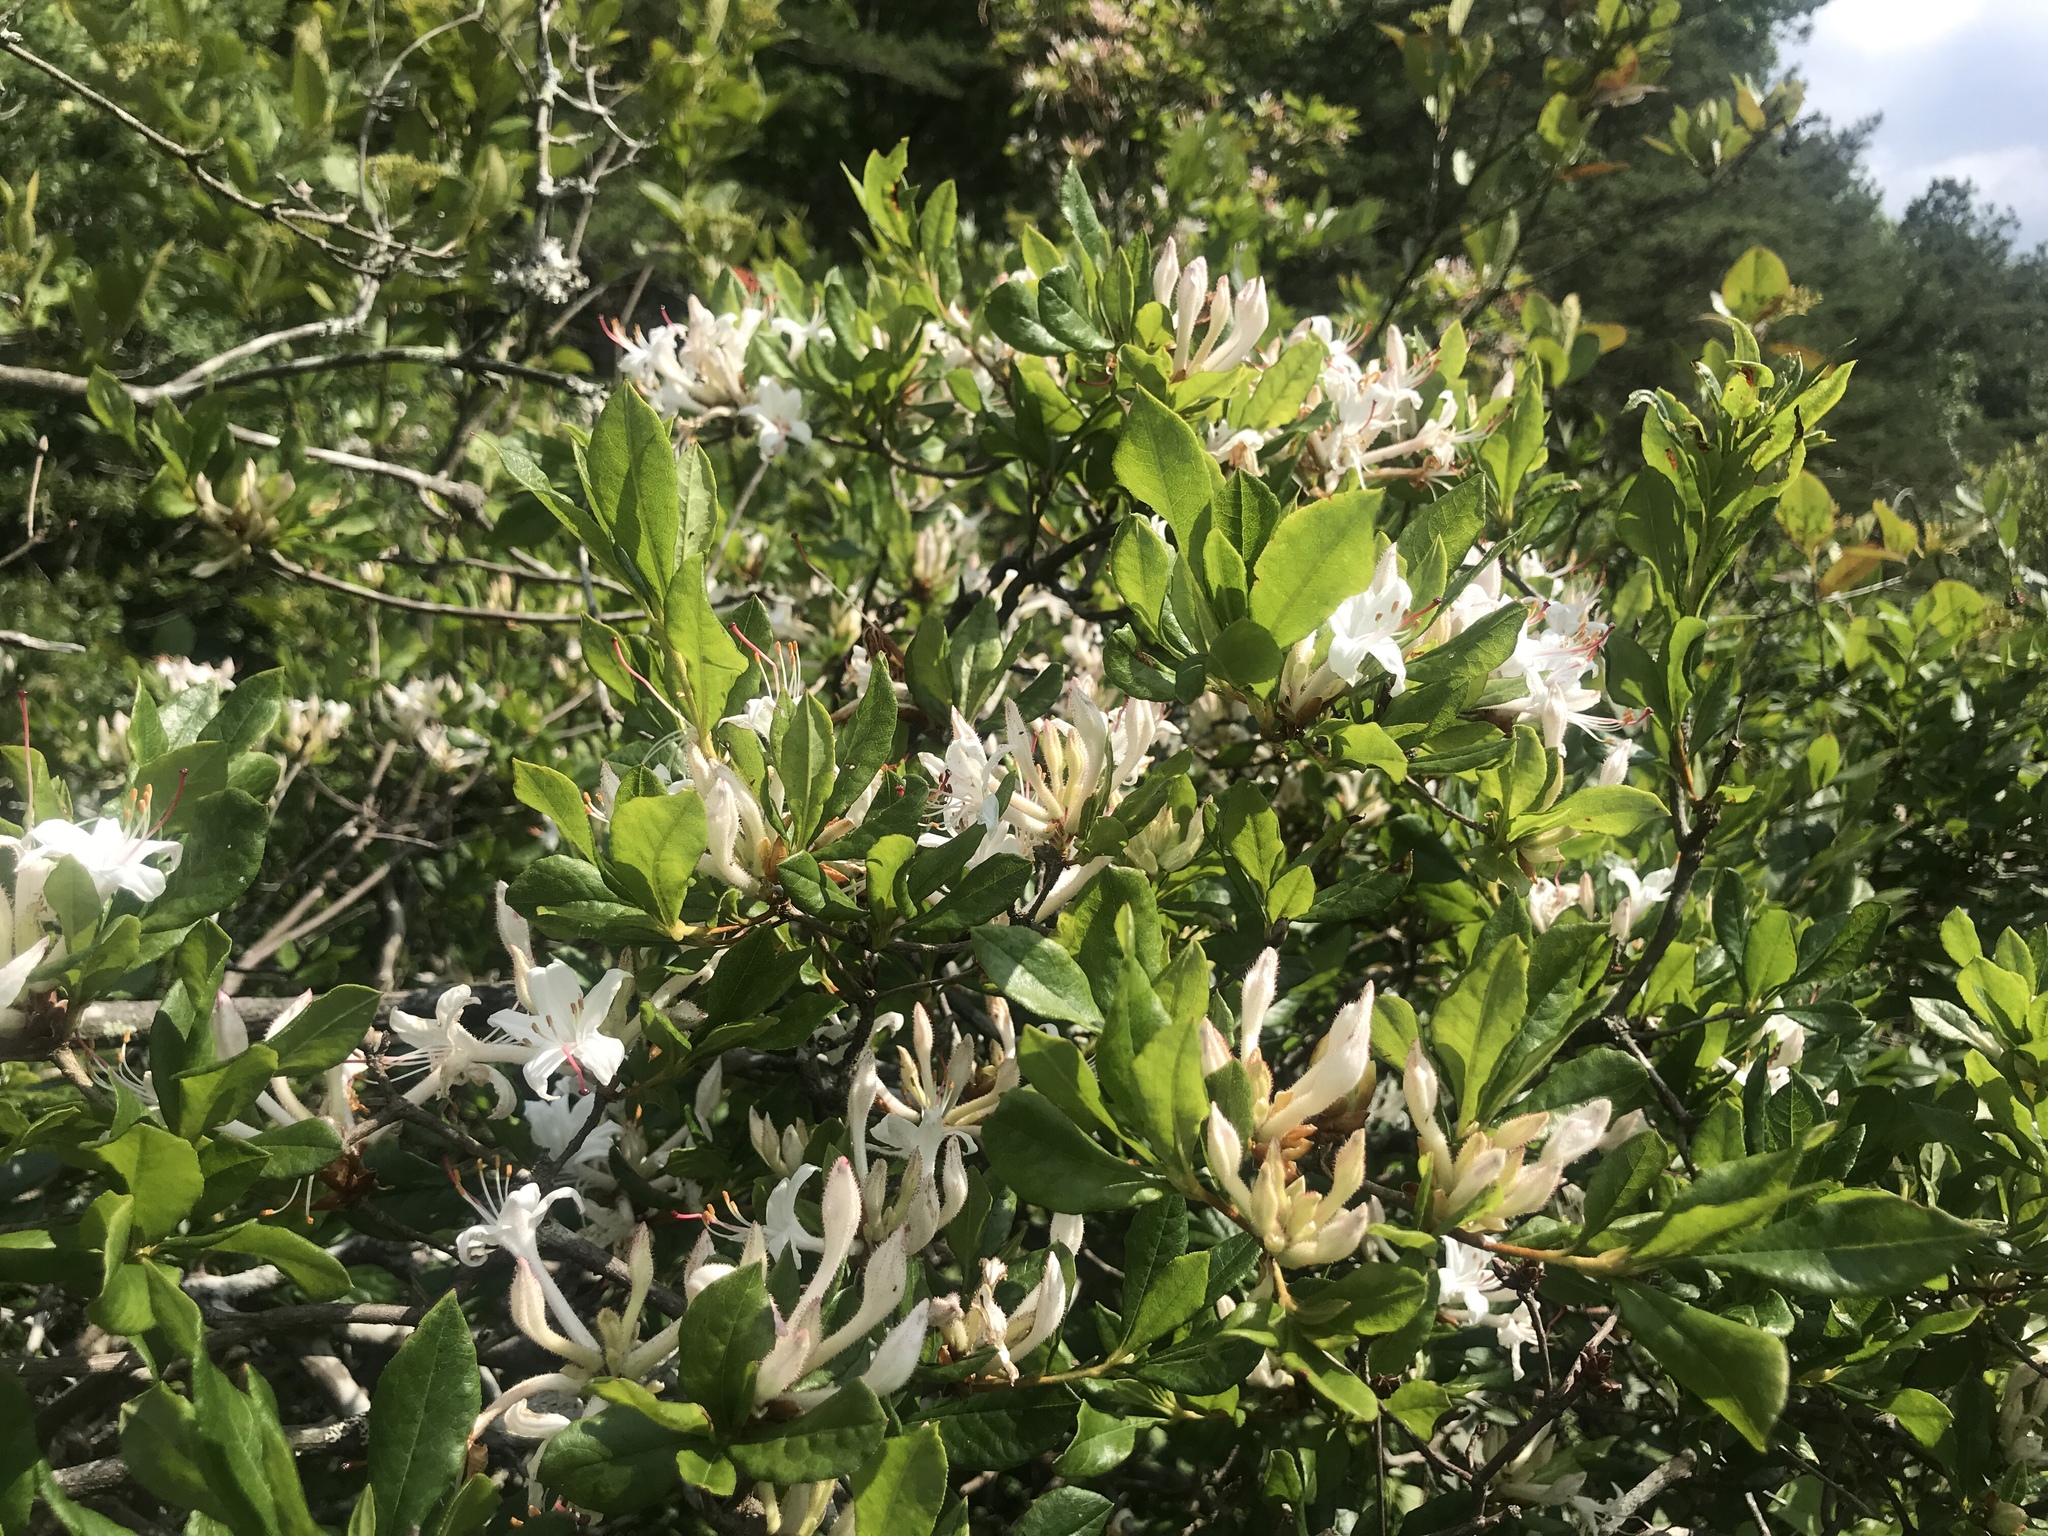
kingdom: Plantae
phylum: Tracheophyta
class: Magnoliopsida
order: Ericales
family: Ericaceae
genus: Rhododendron
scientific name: Rhododendron viscosum
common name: Clammy azalea
